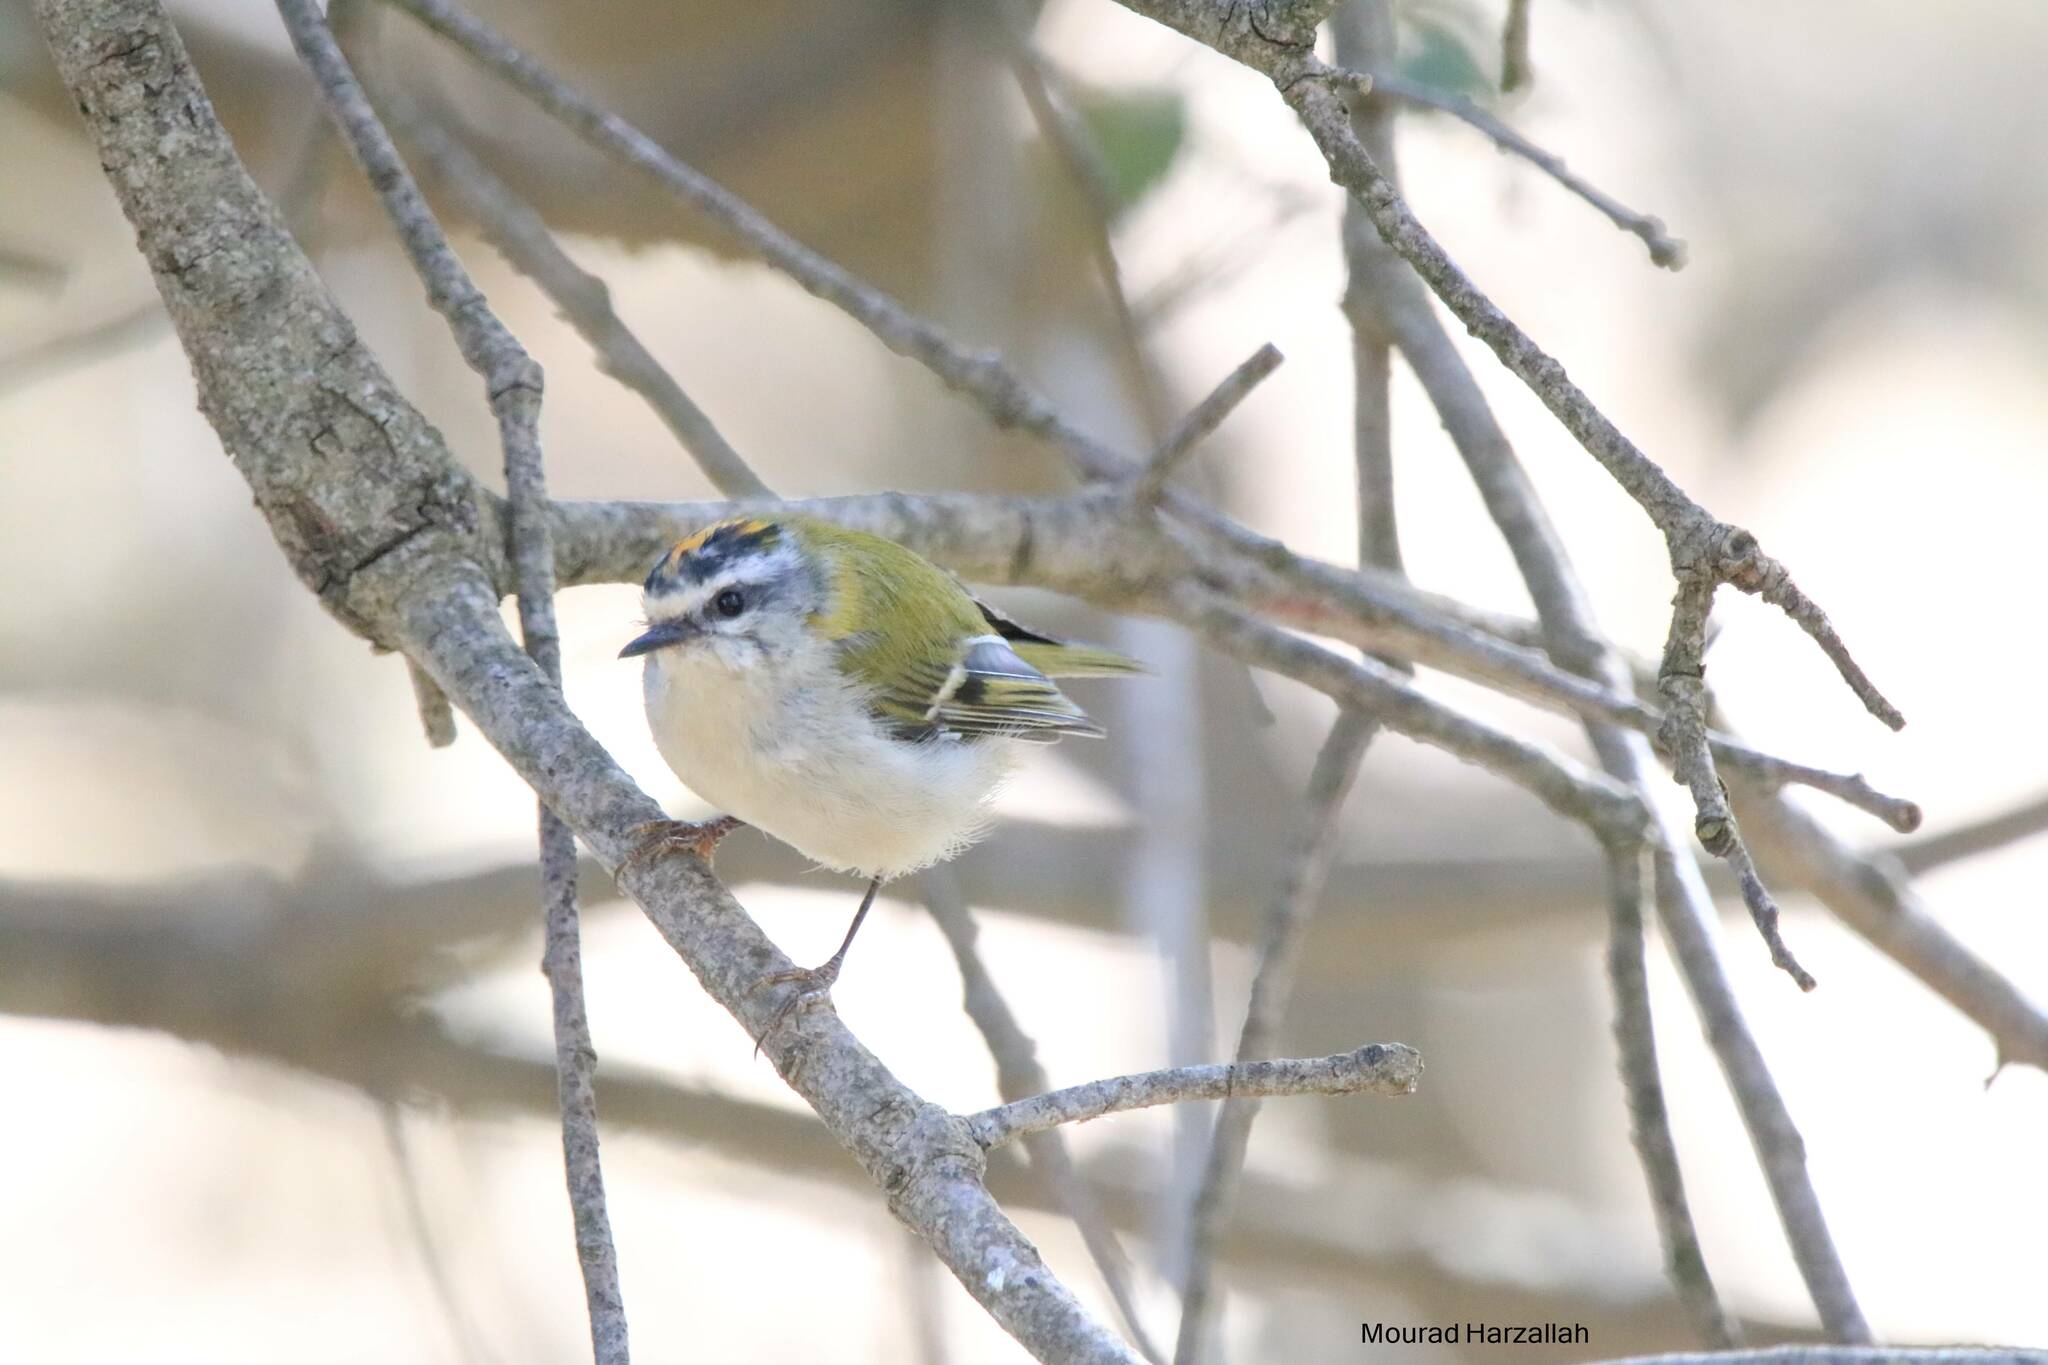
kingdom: Animalia
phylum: Chordata
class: Aves
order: Passeriformes
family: Regulidae
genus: Regulus
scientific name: Regulus ignicapilla
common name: Firecrest
